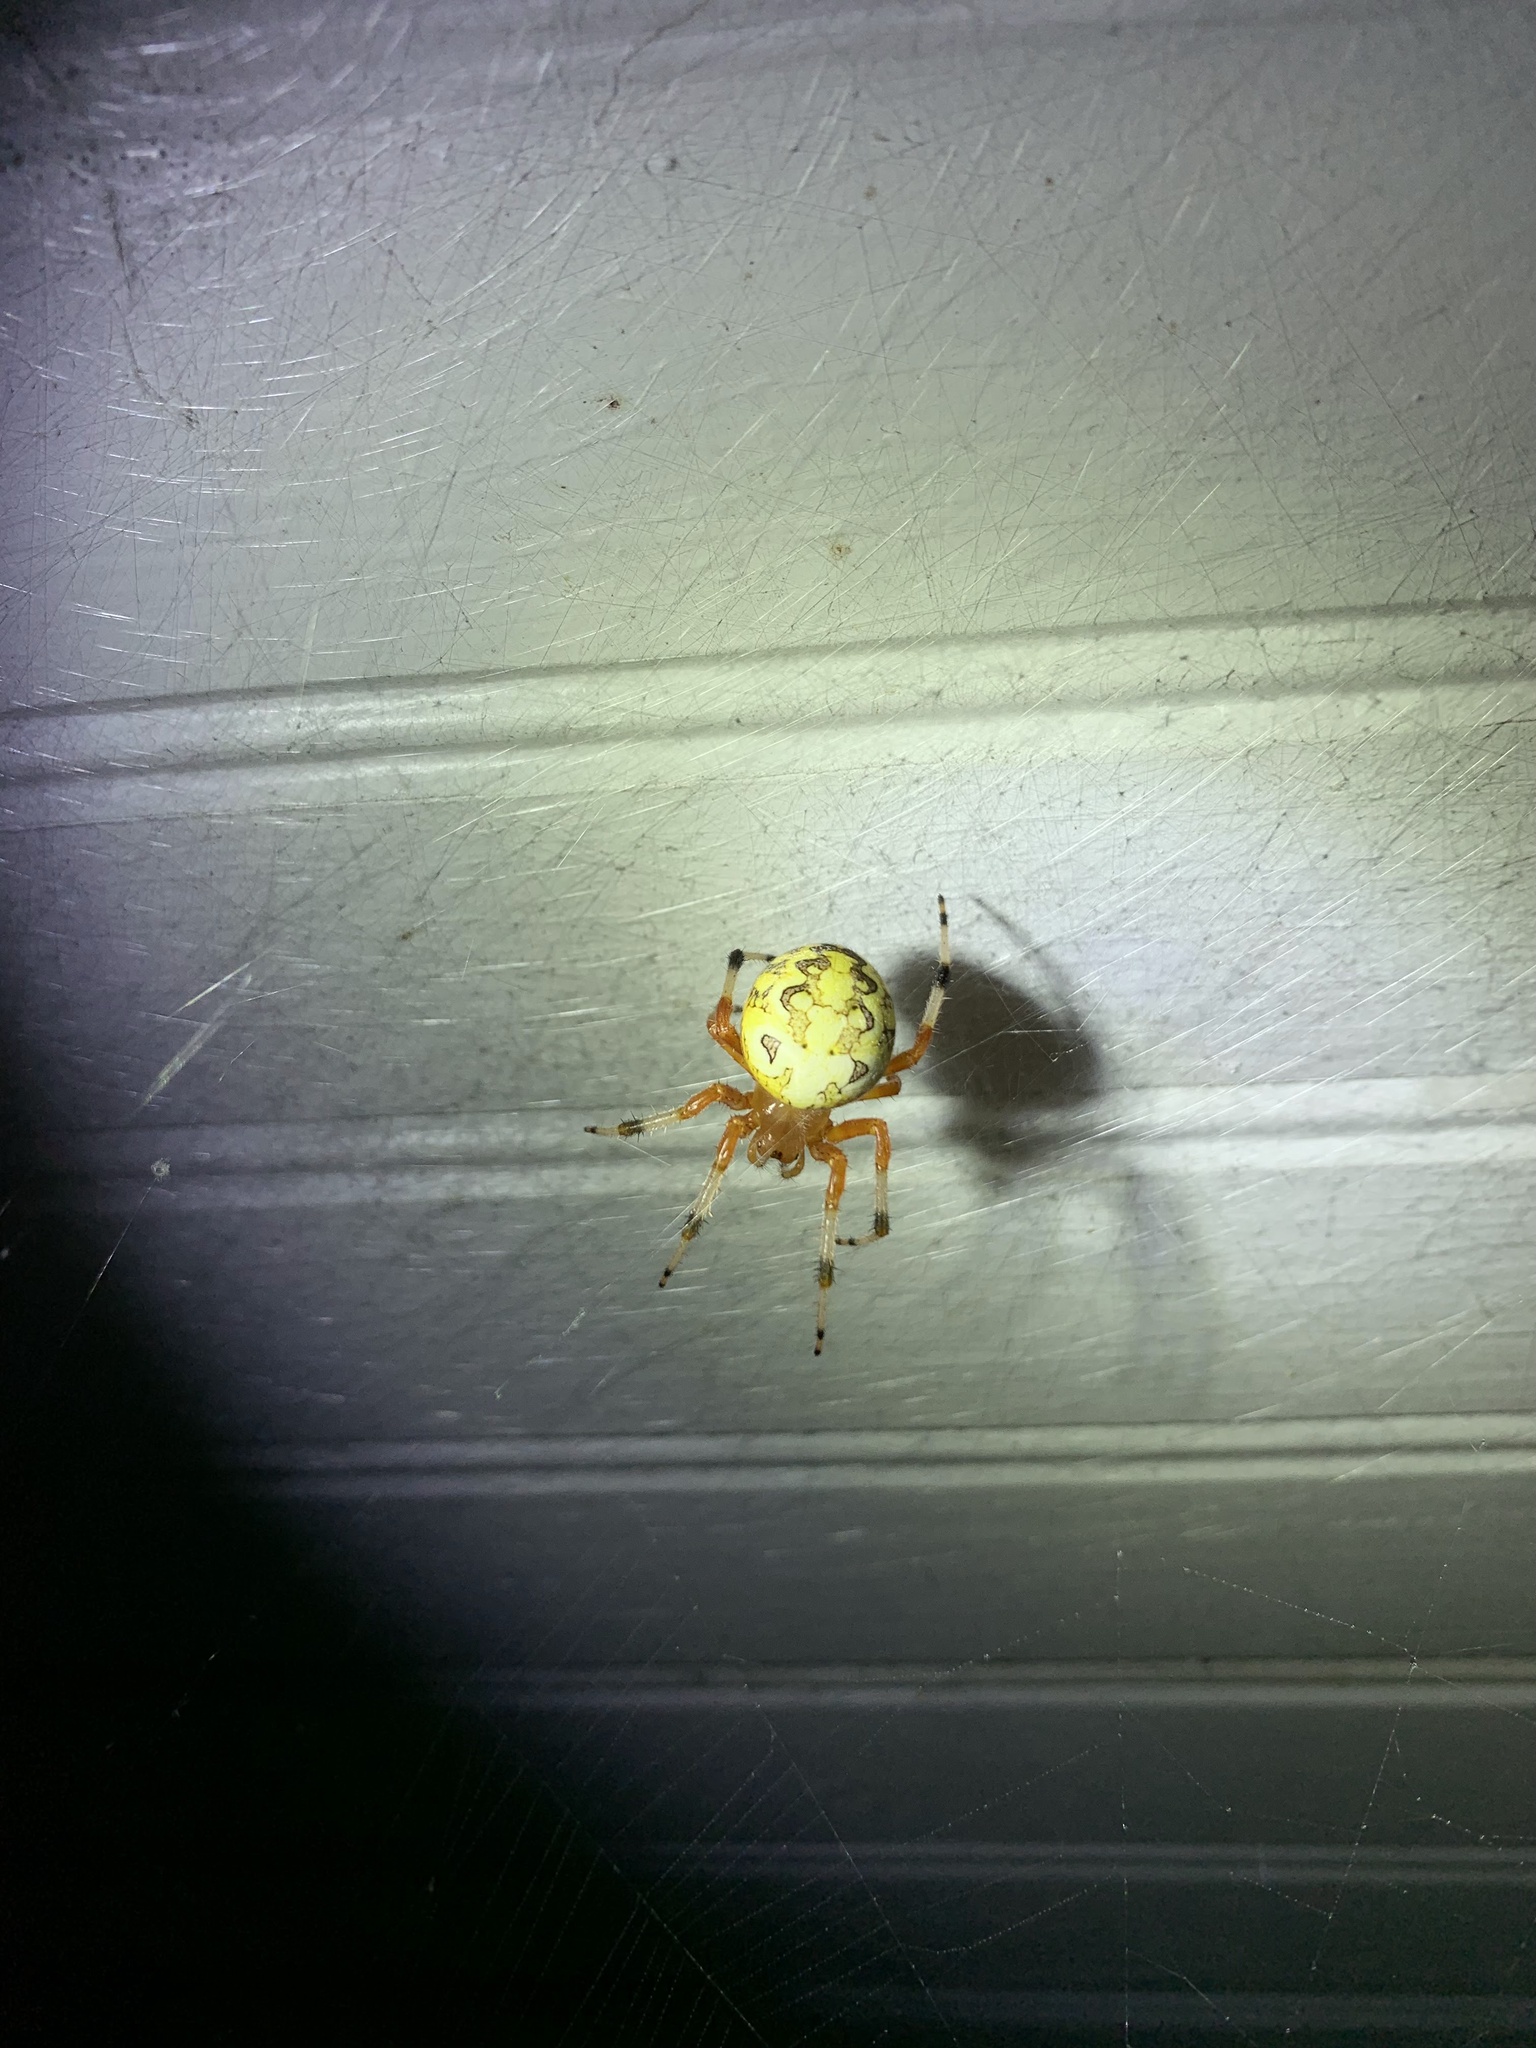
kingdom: Animalia
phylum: Arthropoda
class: Arachnida
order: Araneae
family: Araneidae
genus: Araneus
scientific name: Araneus marmoreus
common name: Marbled orbweaver
